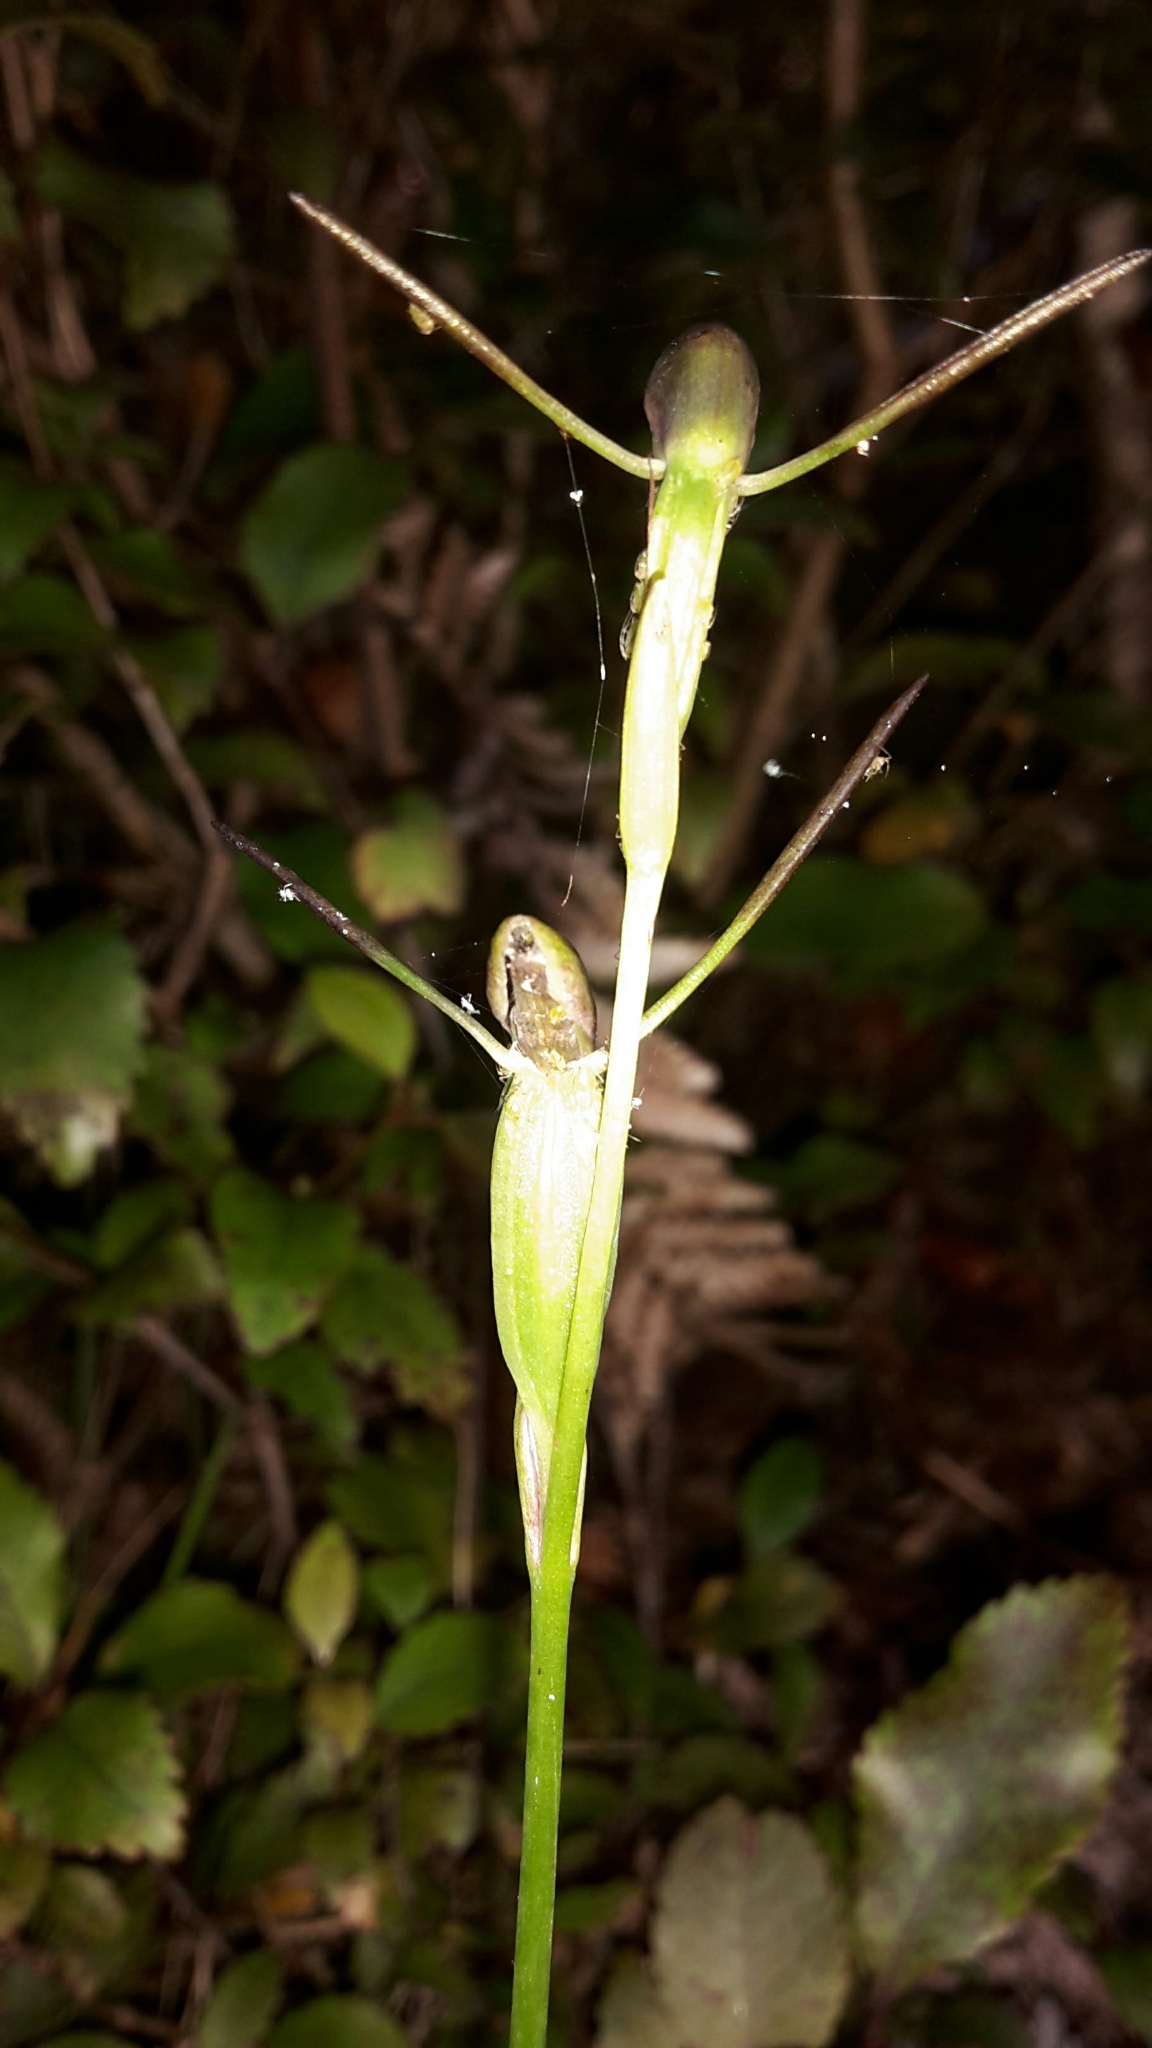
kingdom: Plantae
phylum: Tracheophyta
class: Liliopsida
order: Asparagales
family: Orchidaceae
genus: Orthoceras
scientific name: Orthoceras novae-zeelandiae
